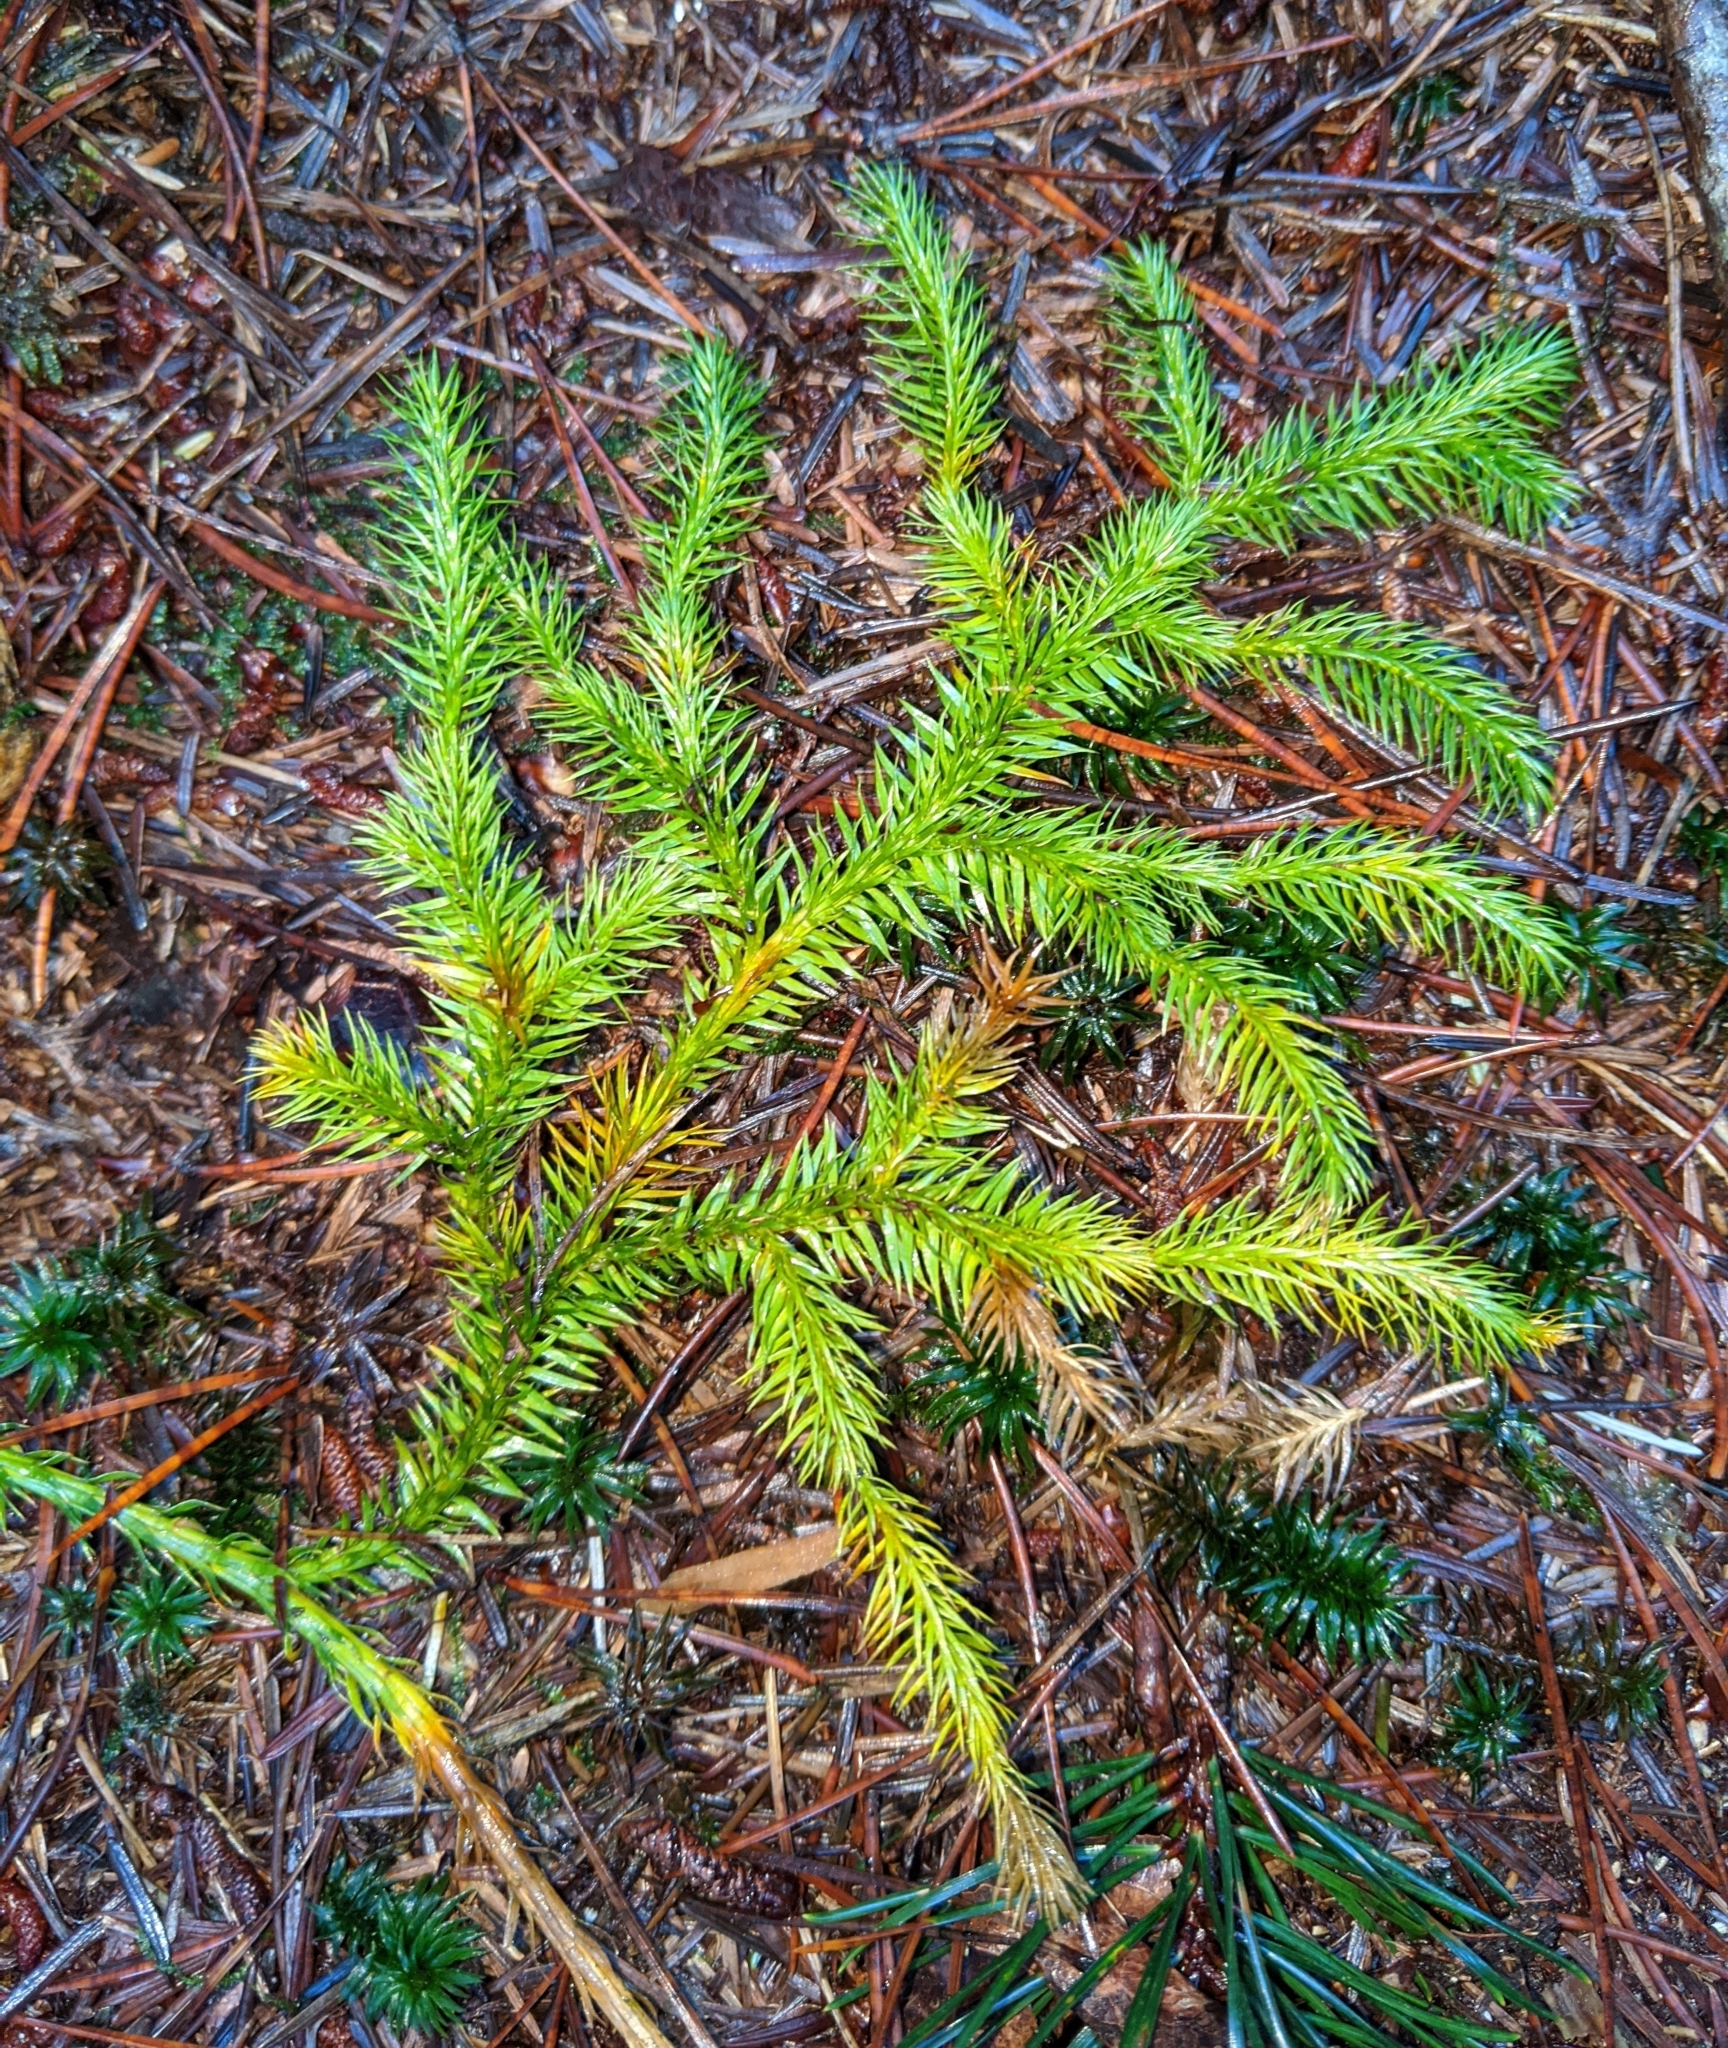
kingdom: Plantae
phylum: Tracheophyta
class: Lycopodiopsida
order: Lycopodiales
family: Lycopodiaceae
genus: Lycopodium
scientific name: Lycopodium clavatum
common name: Stag's-horn clubmoss
